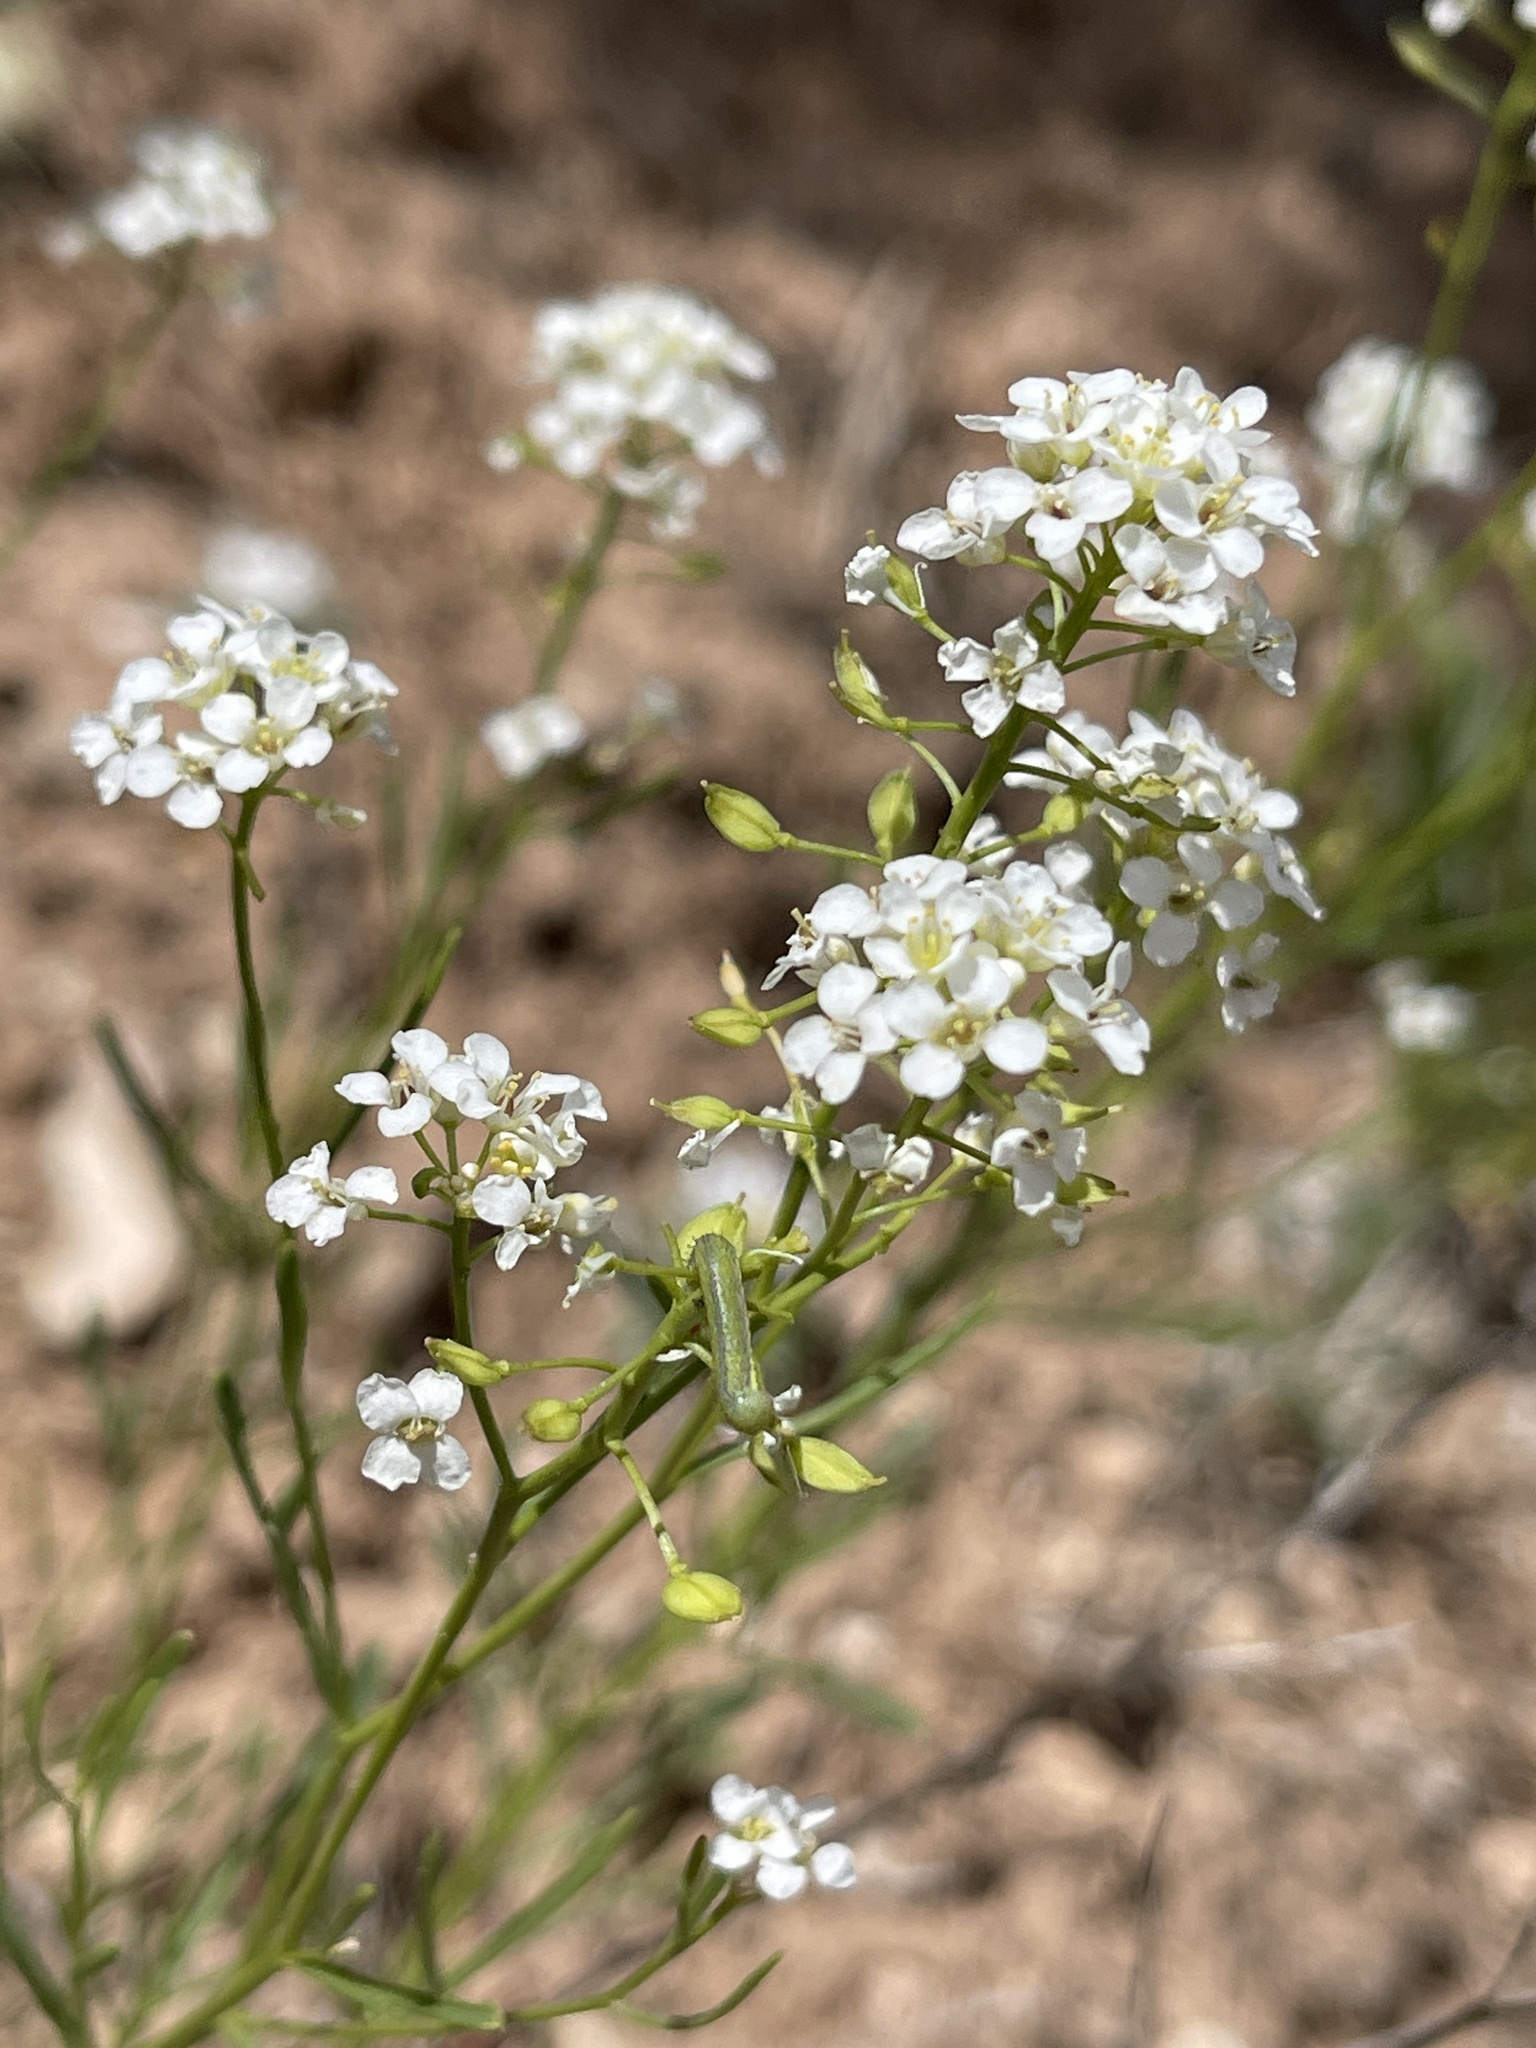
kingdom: Plantae
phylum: Tracheophyta
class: Magnoliopsida
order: Brassicales
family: Brassicaceae
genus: Lepidium
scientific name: Lepidium montanum
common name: Mountain pepperplant
